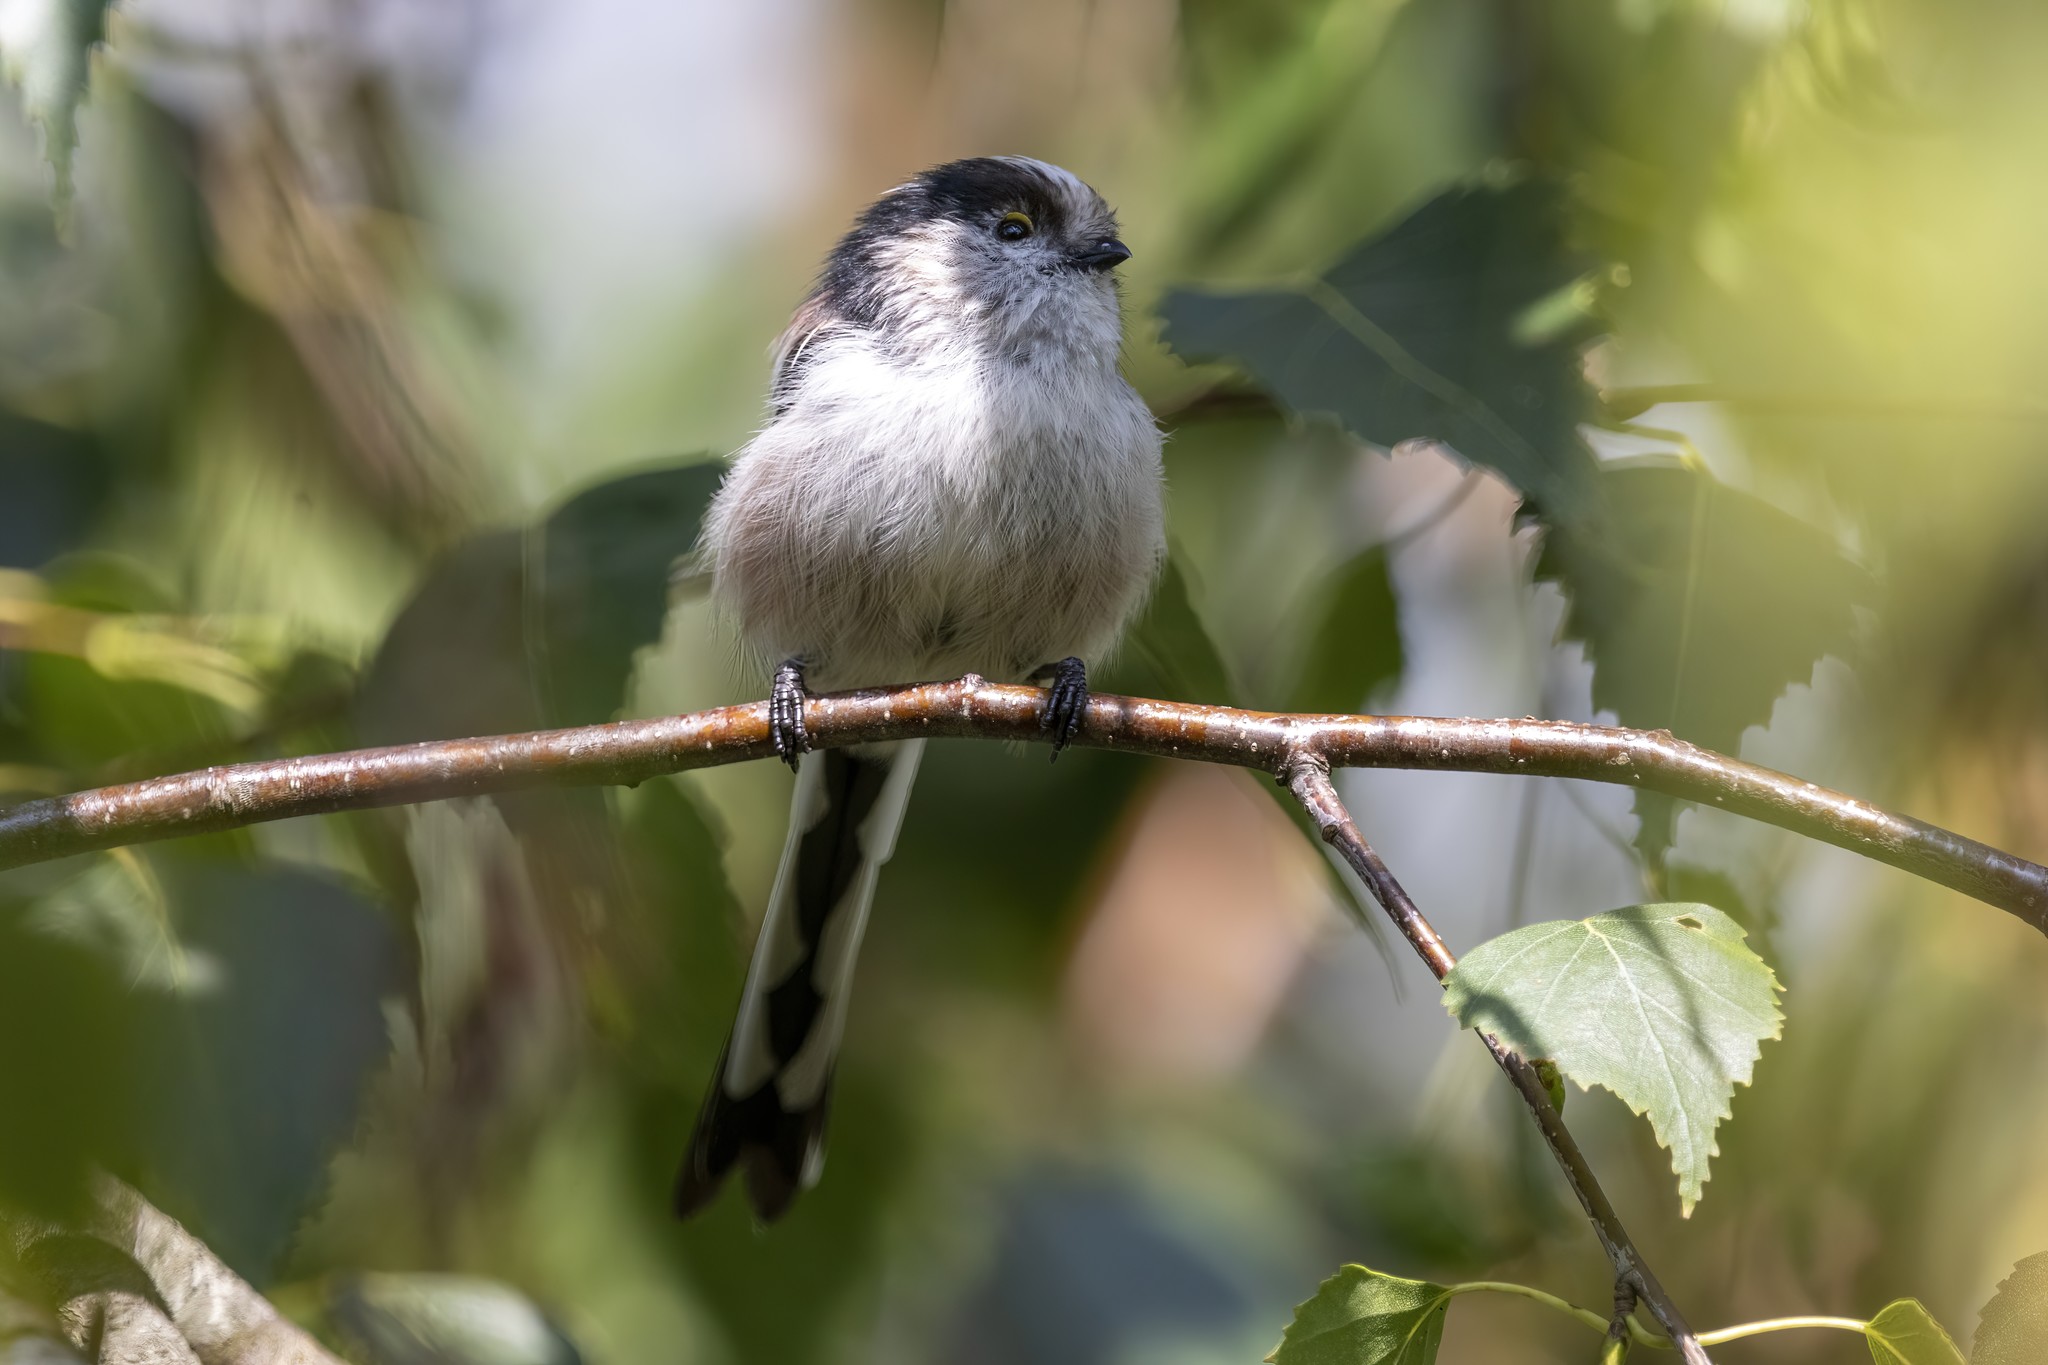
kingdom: Animalia
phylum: Chordata
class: Aves
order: Passeriformes
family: Aegithalidae
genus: Aegithalos
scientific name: Aegithalos caudatus
